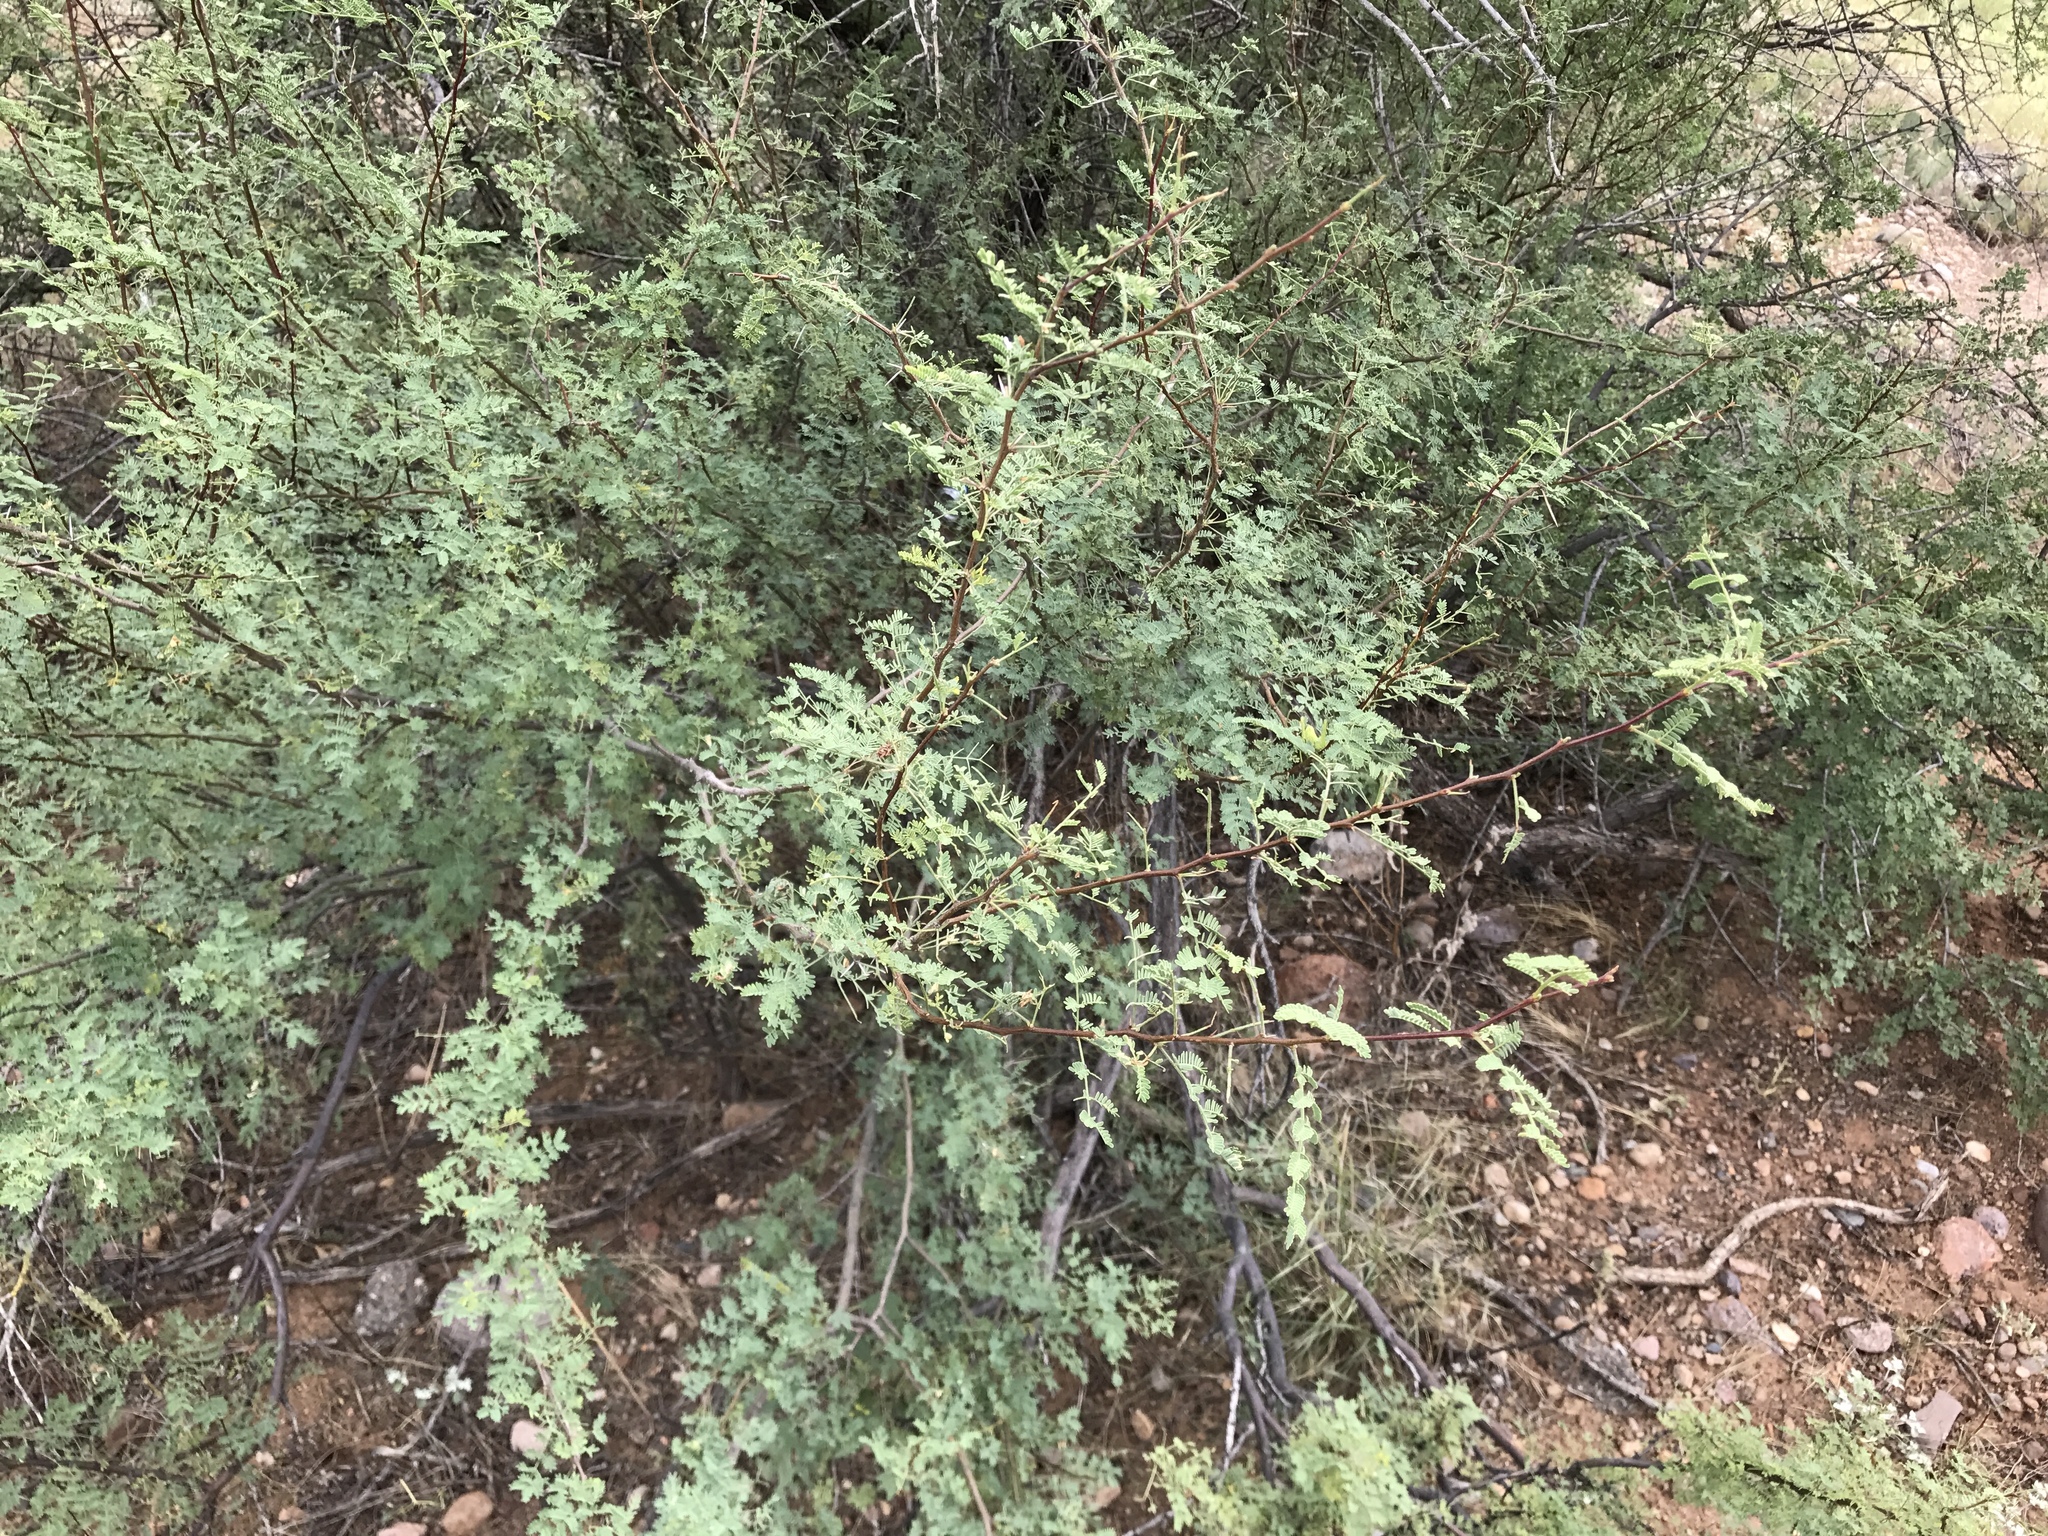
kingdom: Plantae
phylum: Tracheophyta
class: Magnoliopsida
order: Fabales
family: Fabaceae
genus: Senegalia
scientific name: Senegalia greggii
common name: Texas-mimosa
